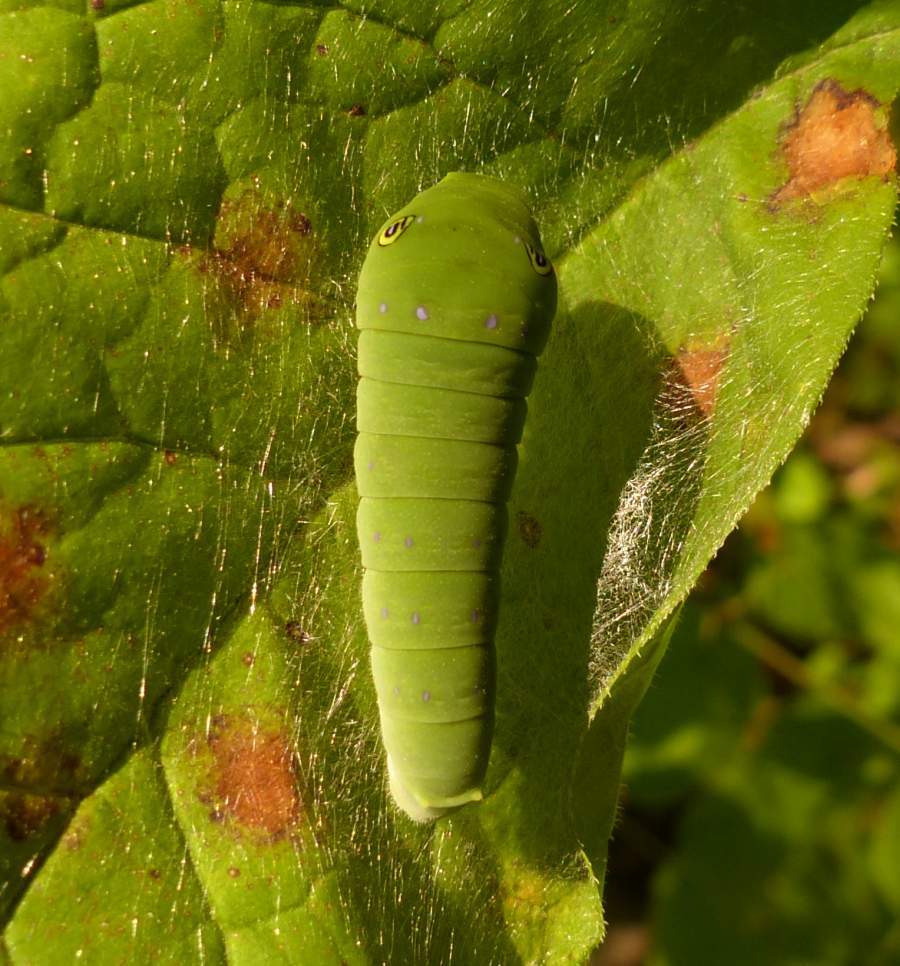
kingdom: Animalia
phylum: Arthropoda
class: Insecta
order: Lepidoptera
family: Papilionidae
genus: Papilio
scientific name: Papilio
